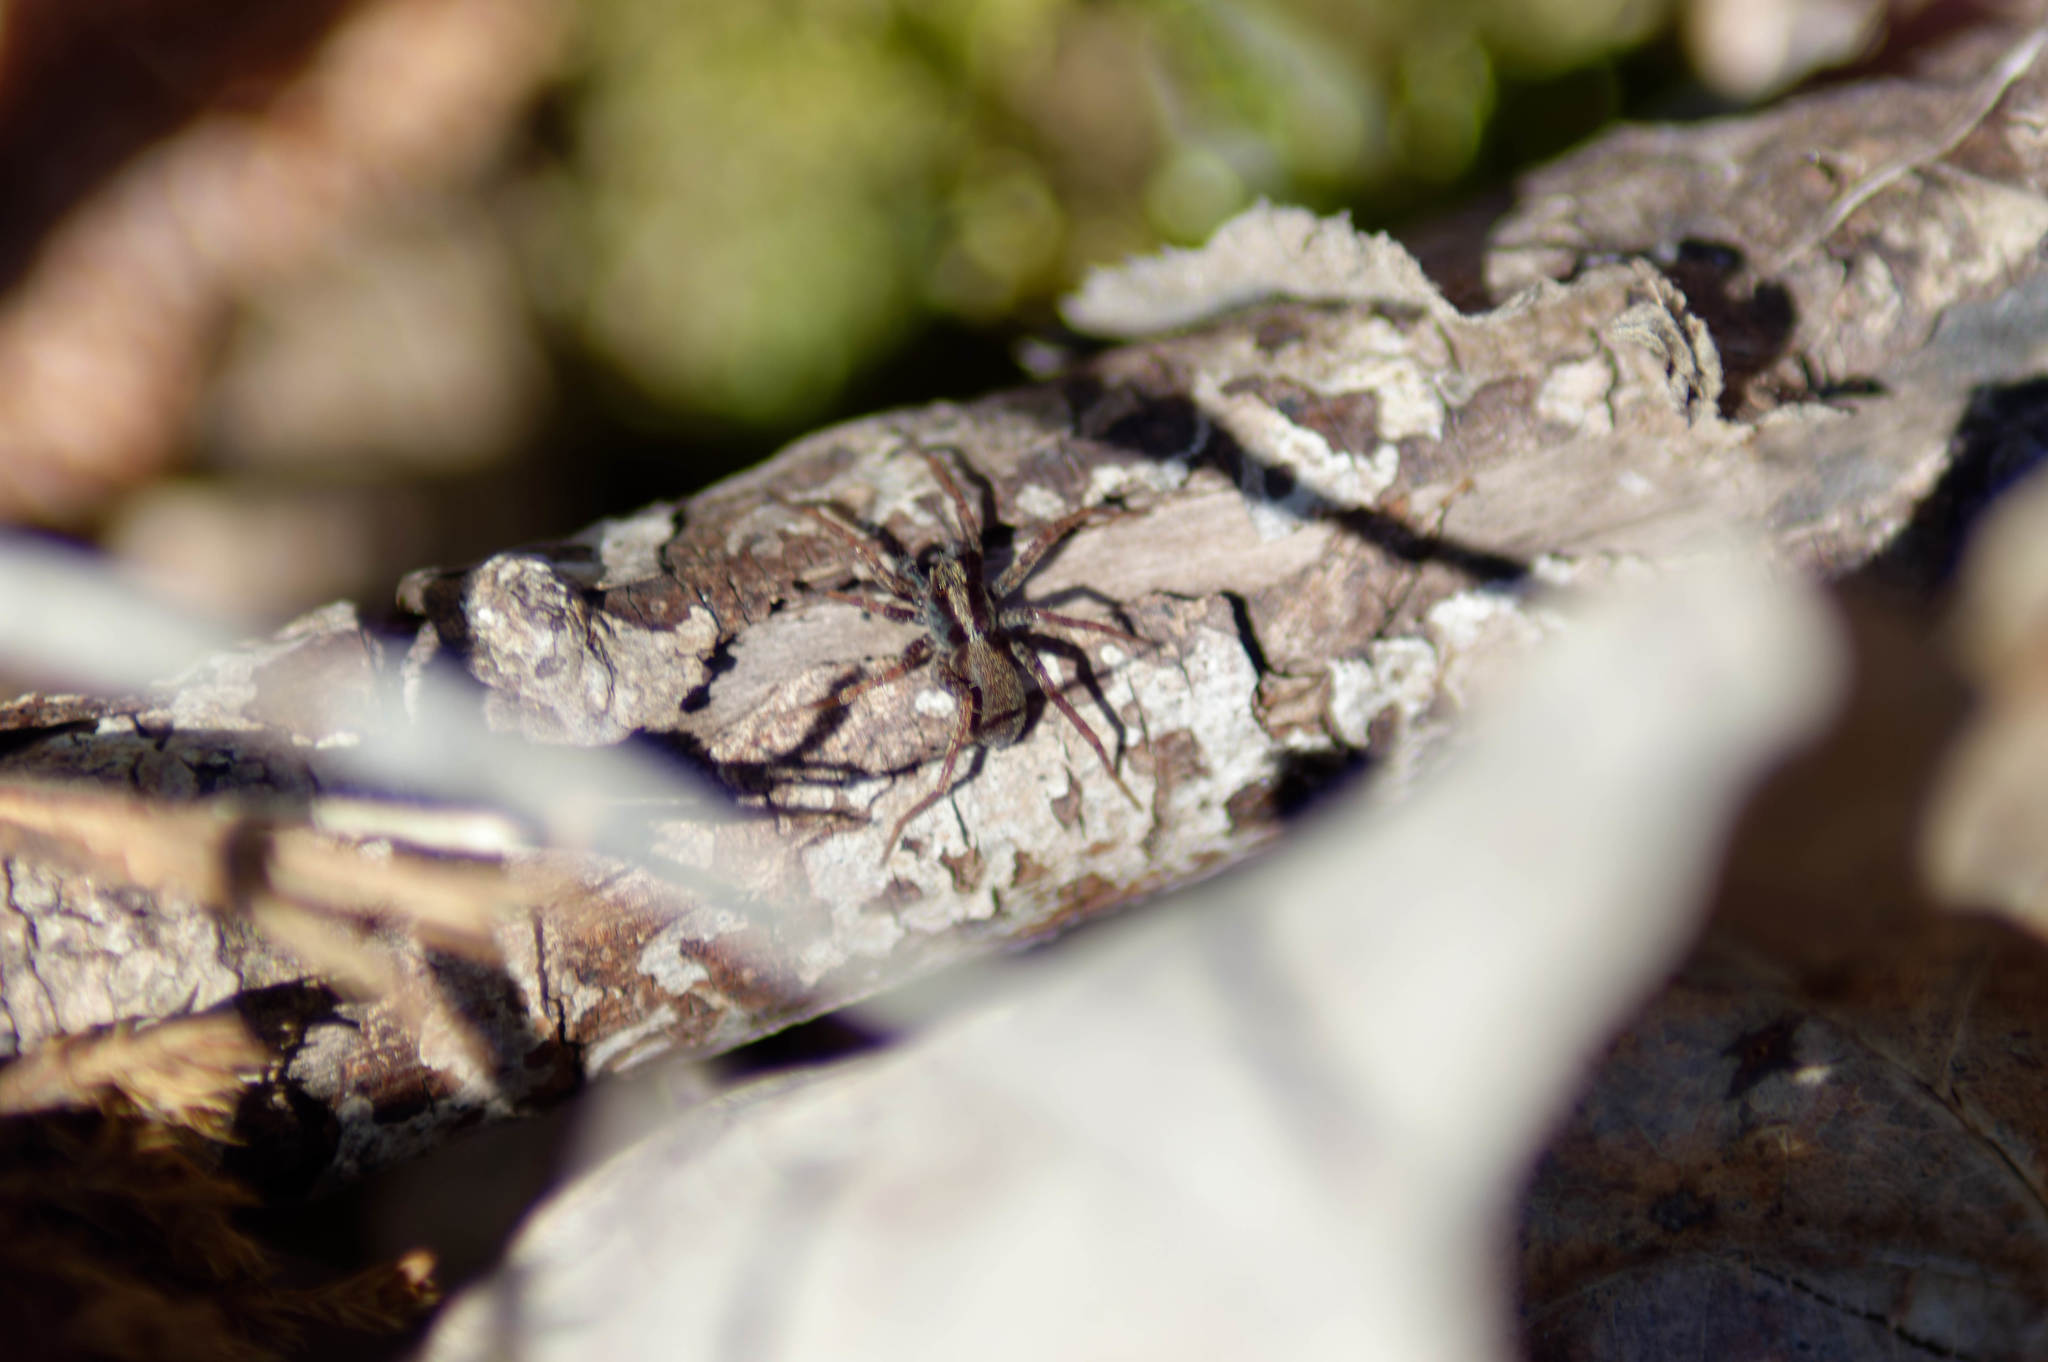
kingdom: Animalia
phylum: Arthropoda
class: Arachnida
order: Araneae
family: Lycosidae
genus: Pardosa
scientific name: Pardosa
